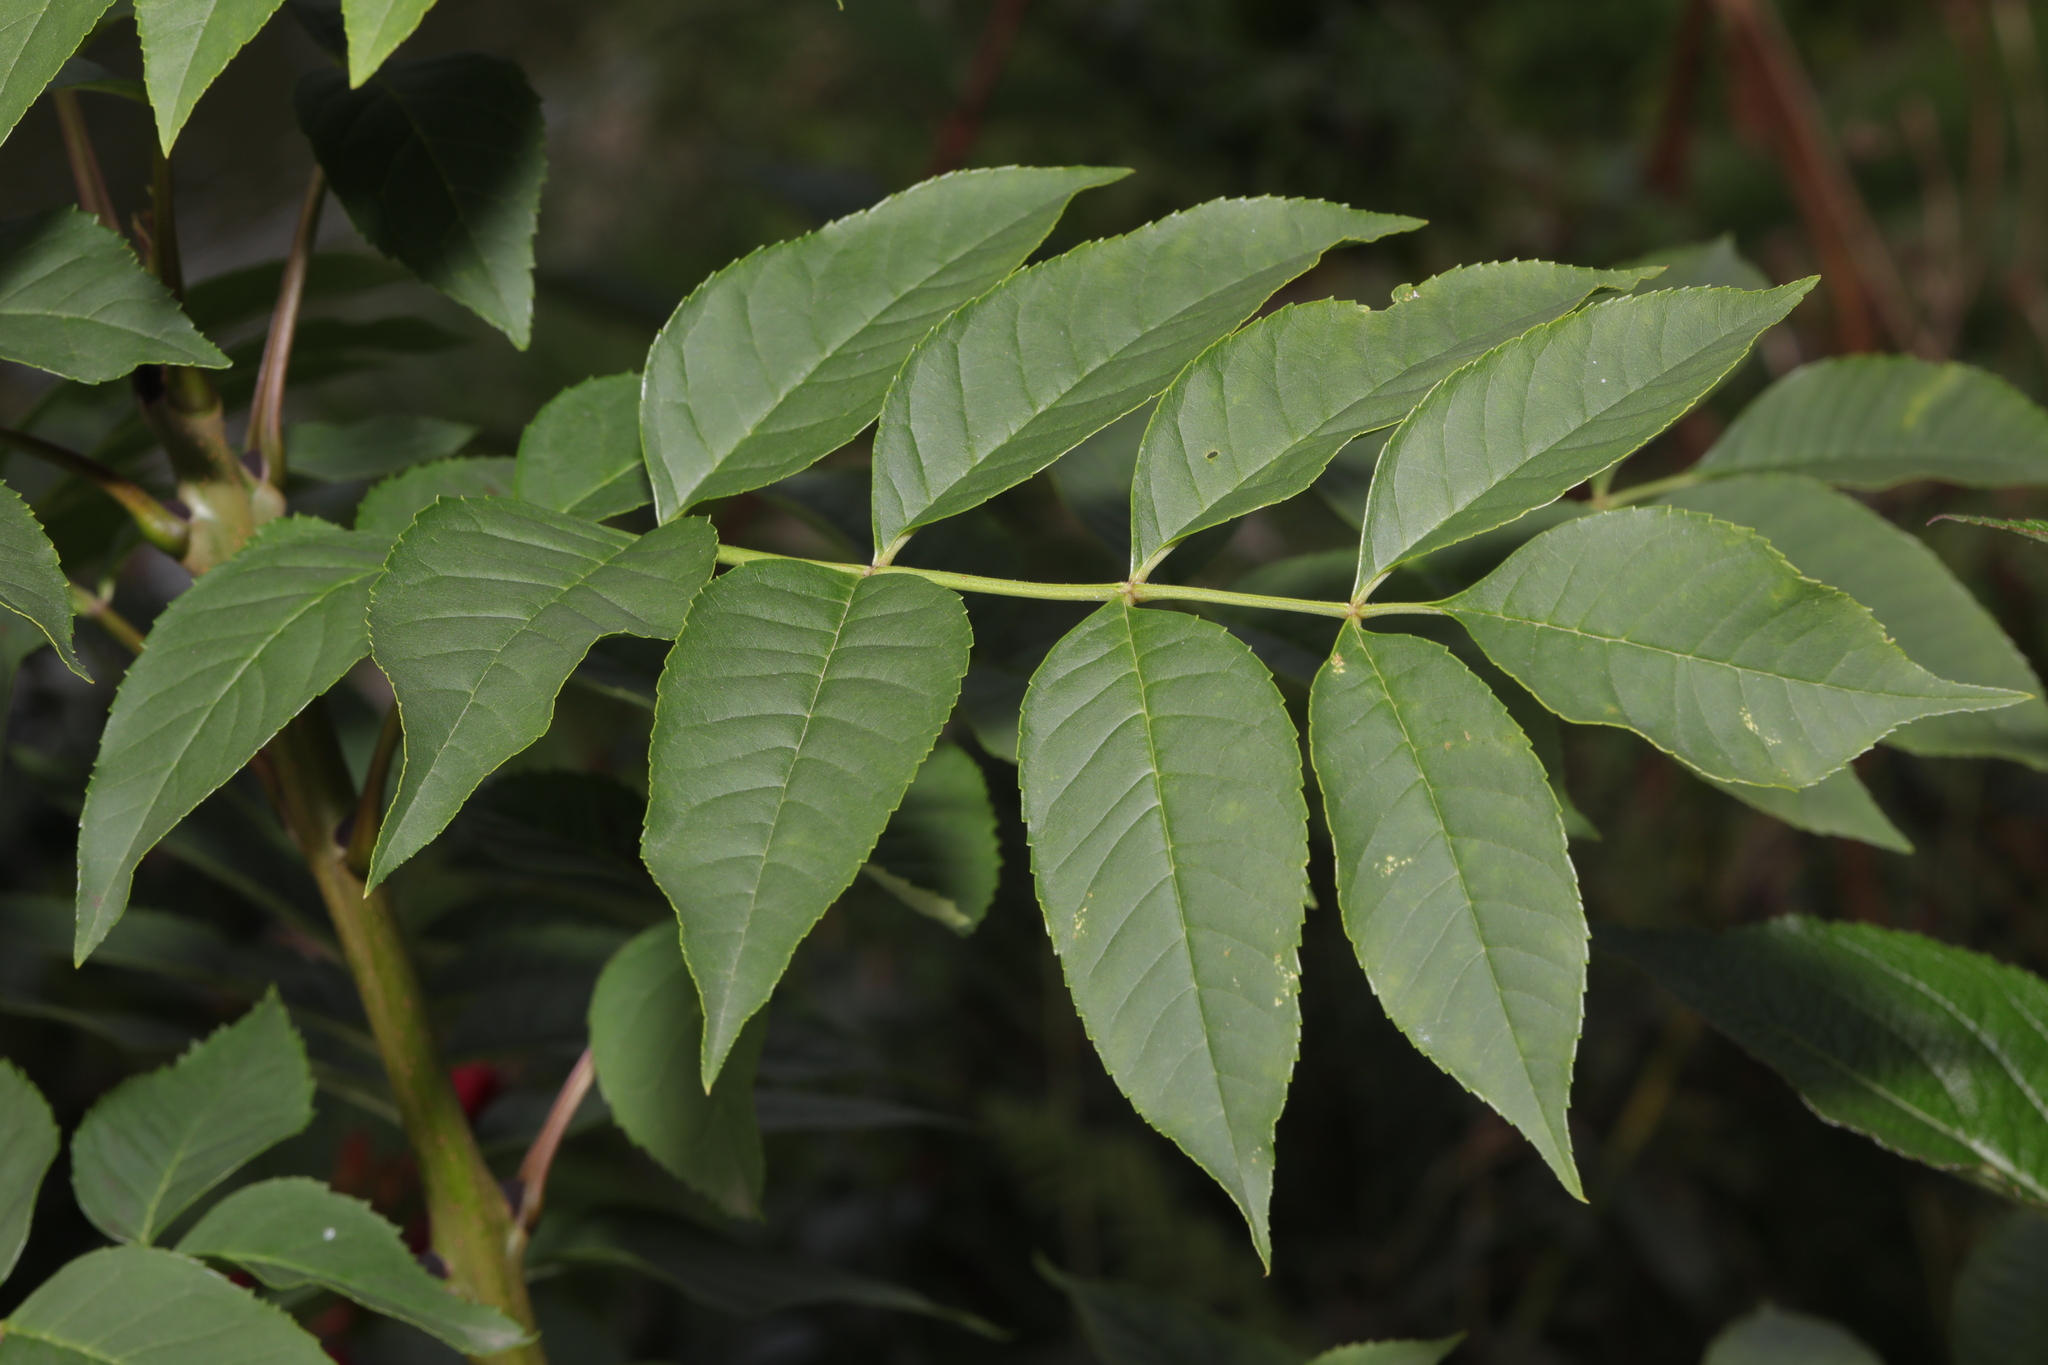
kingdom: Plantae
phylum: Tracheophyta
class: Magnoliopsida
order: Lamiales
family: Oleaceae
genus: Fraxinus
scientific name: Fraxinus excelsior
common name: European ash
